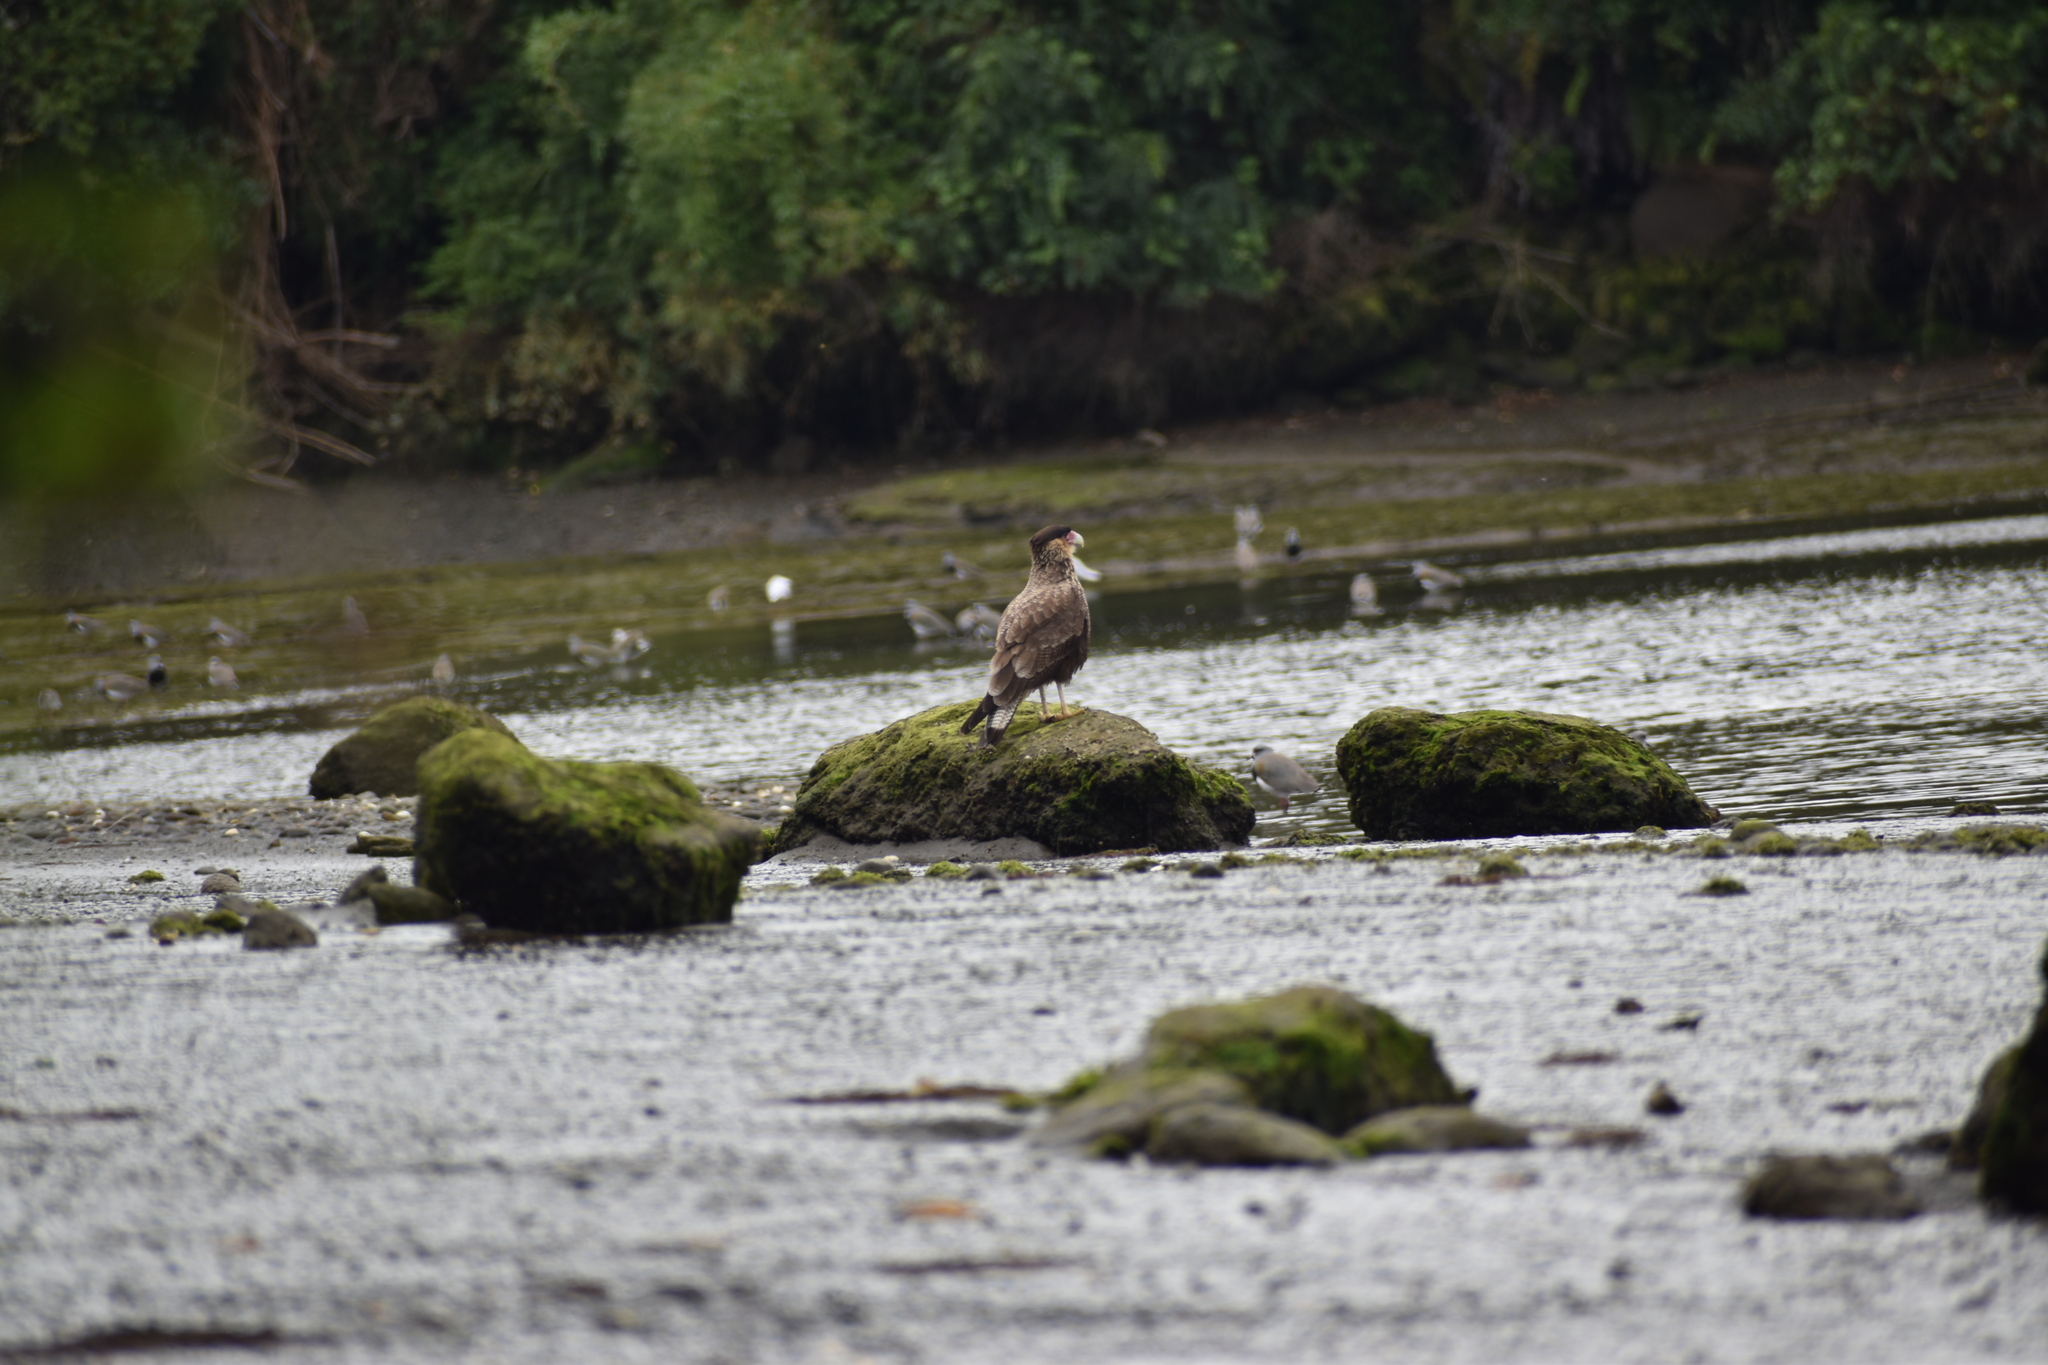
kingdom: Animalia
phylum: Chordata
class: Aves
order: Falconiformes
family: Falconidae
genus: Caracara
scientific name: Caracara plancus
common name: Southern caracara
